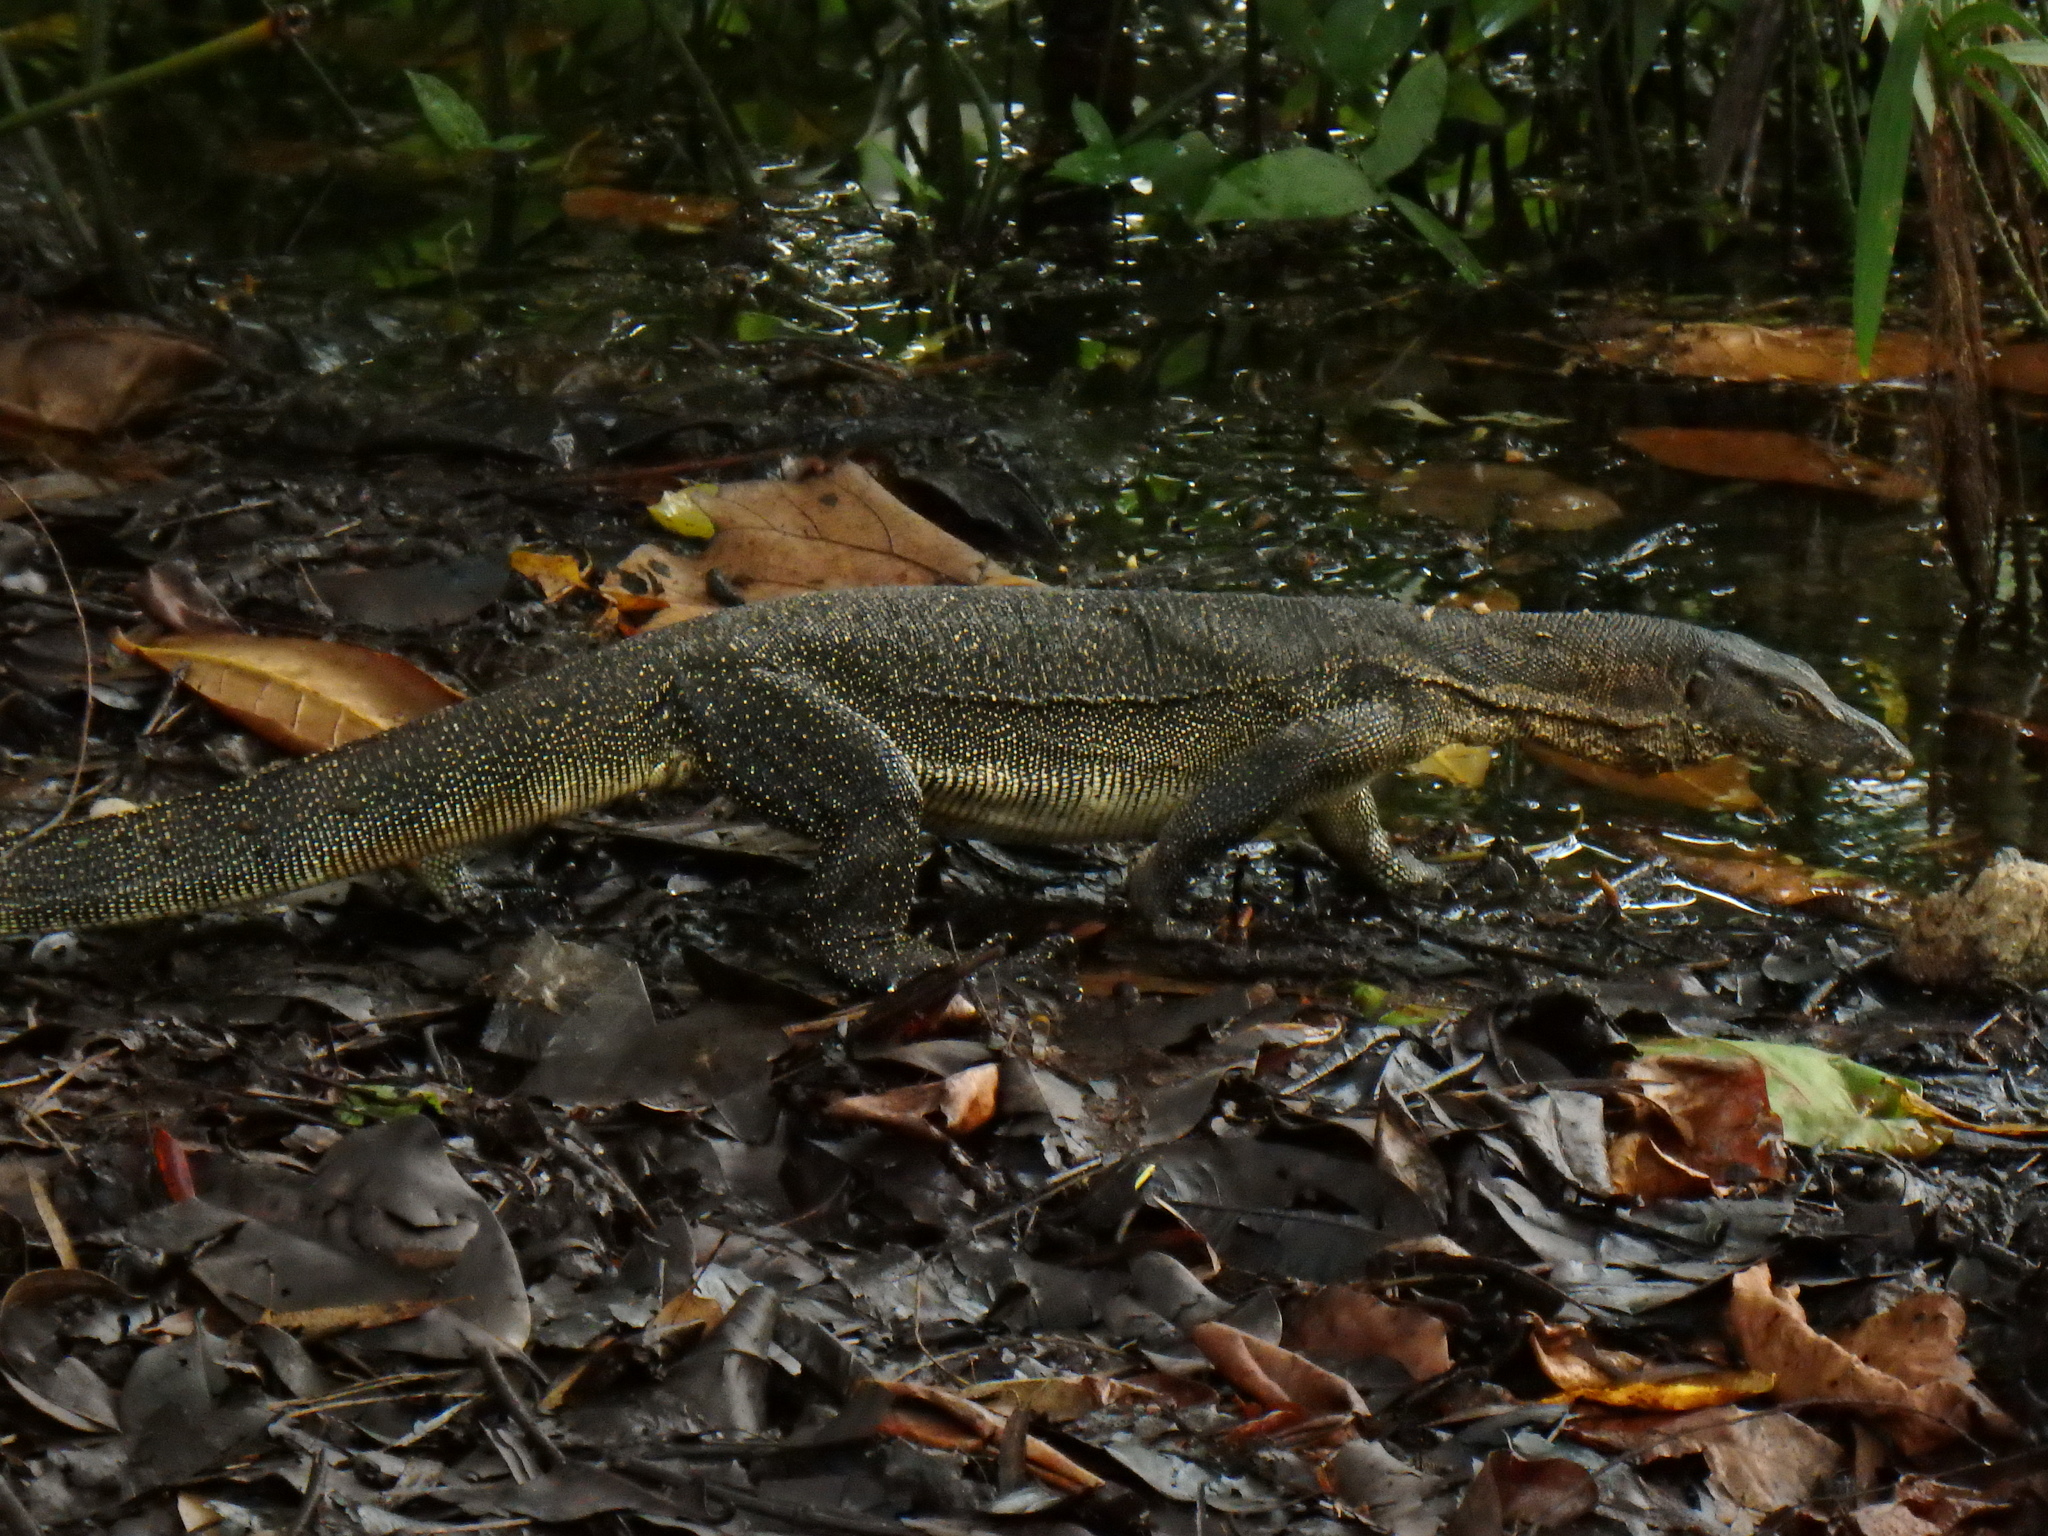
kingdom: Animalia
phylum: Chordata
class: Squamata
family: Varanidae
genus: Varanus
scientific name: Varanus salvator
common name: Common water monitor
